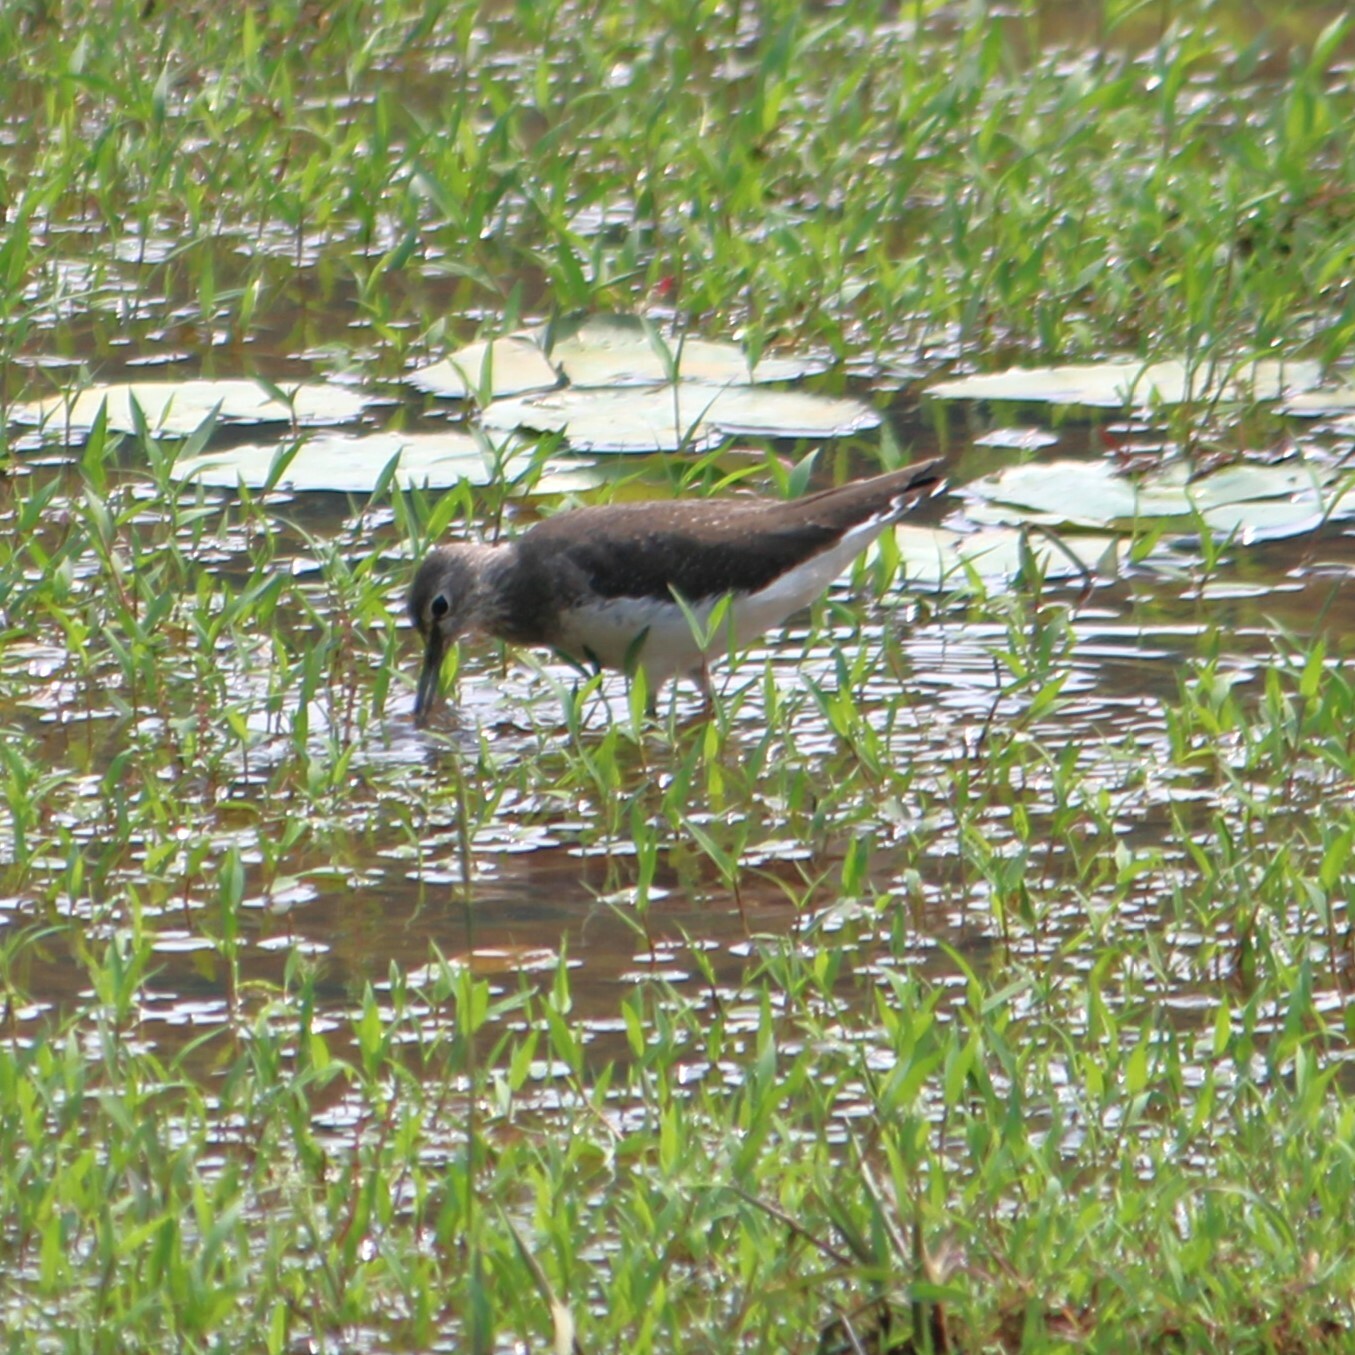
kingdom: Animalia
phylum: Chordata
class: Aves
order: Charadriiformes
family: Scolopacidae
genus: Tringa
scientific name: Tringa ochropus
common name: Green sandpiper
